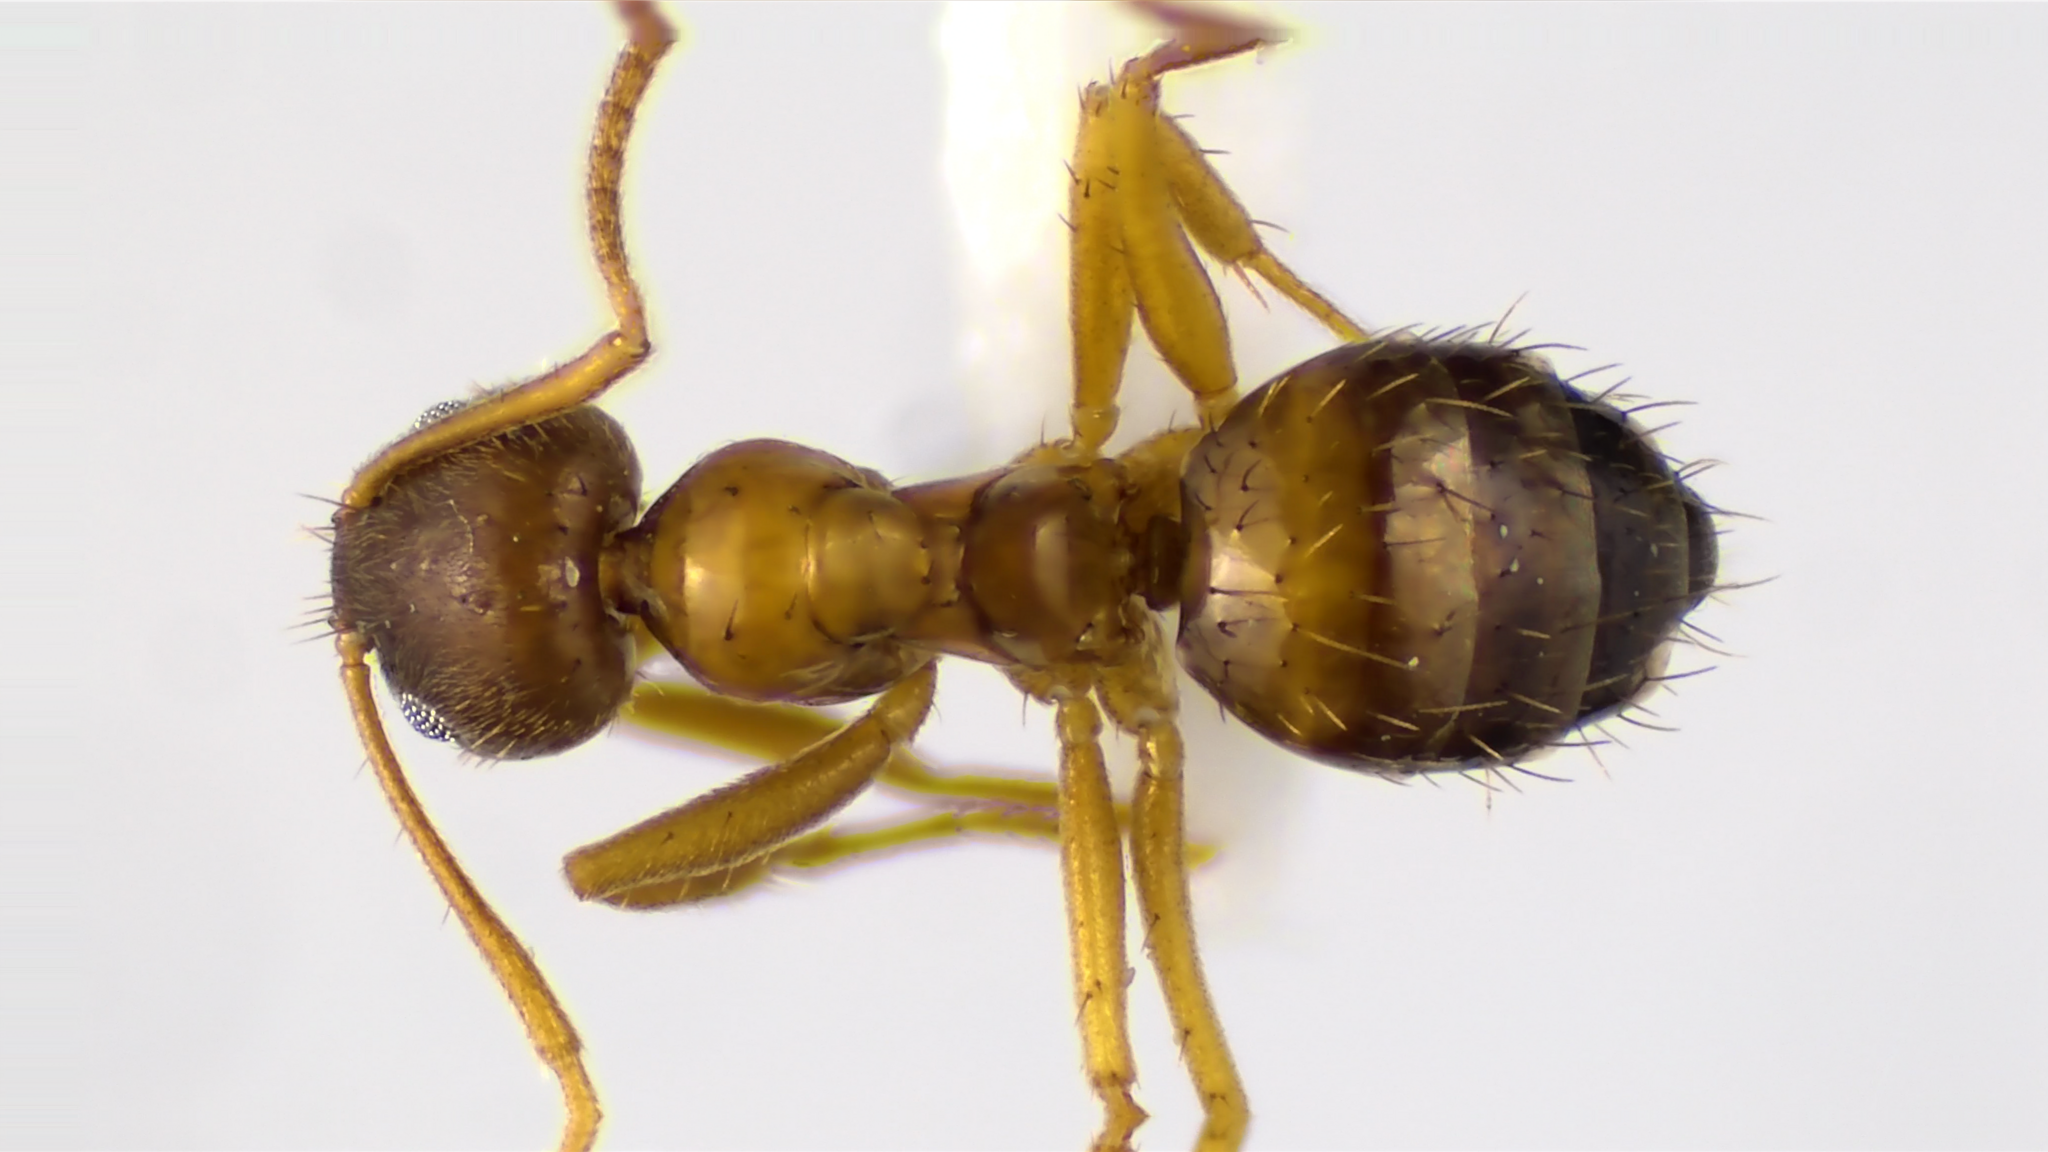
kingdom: Animalia
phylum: Arthropoda
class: Insecta
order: Hymenoptera
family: Formicidae
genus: Paratrechina
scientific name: Paratrechina flavipes
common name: Eastern asian formicine ant
